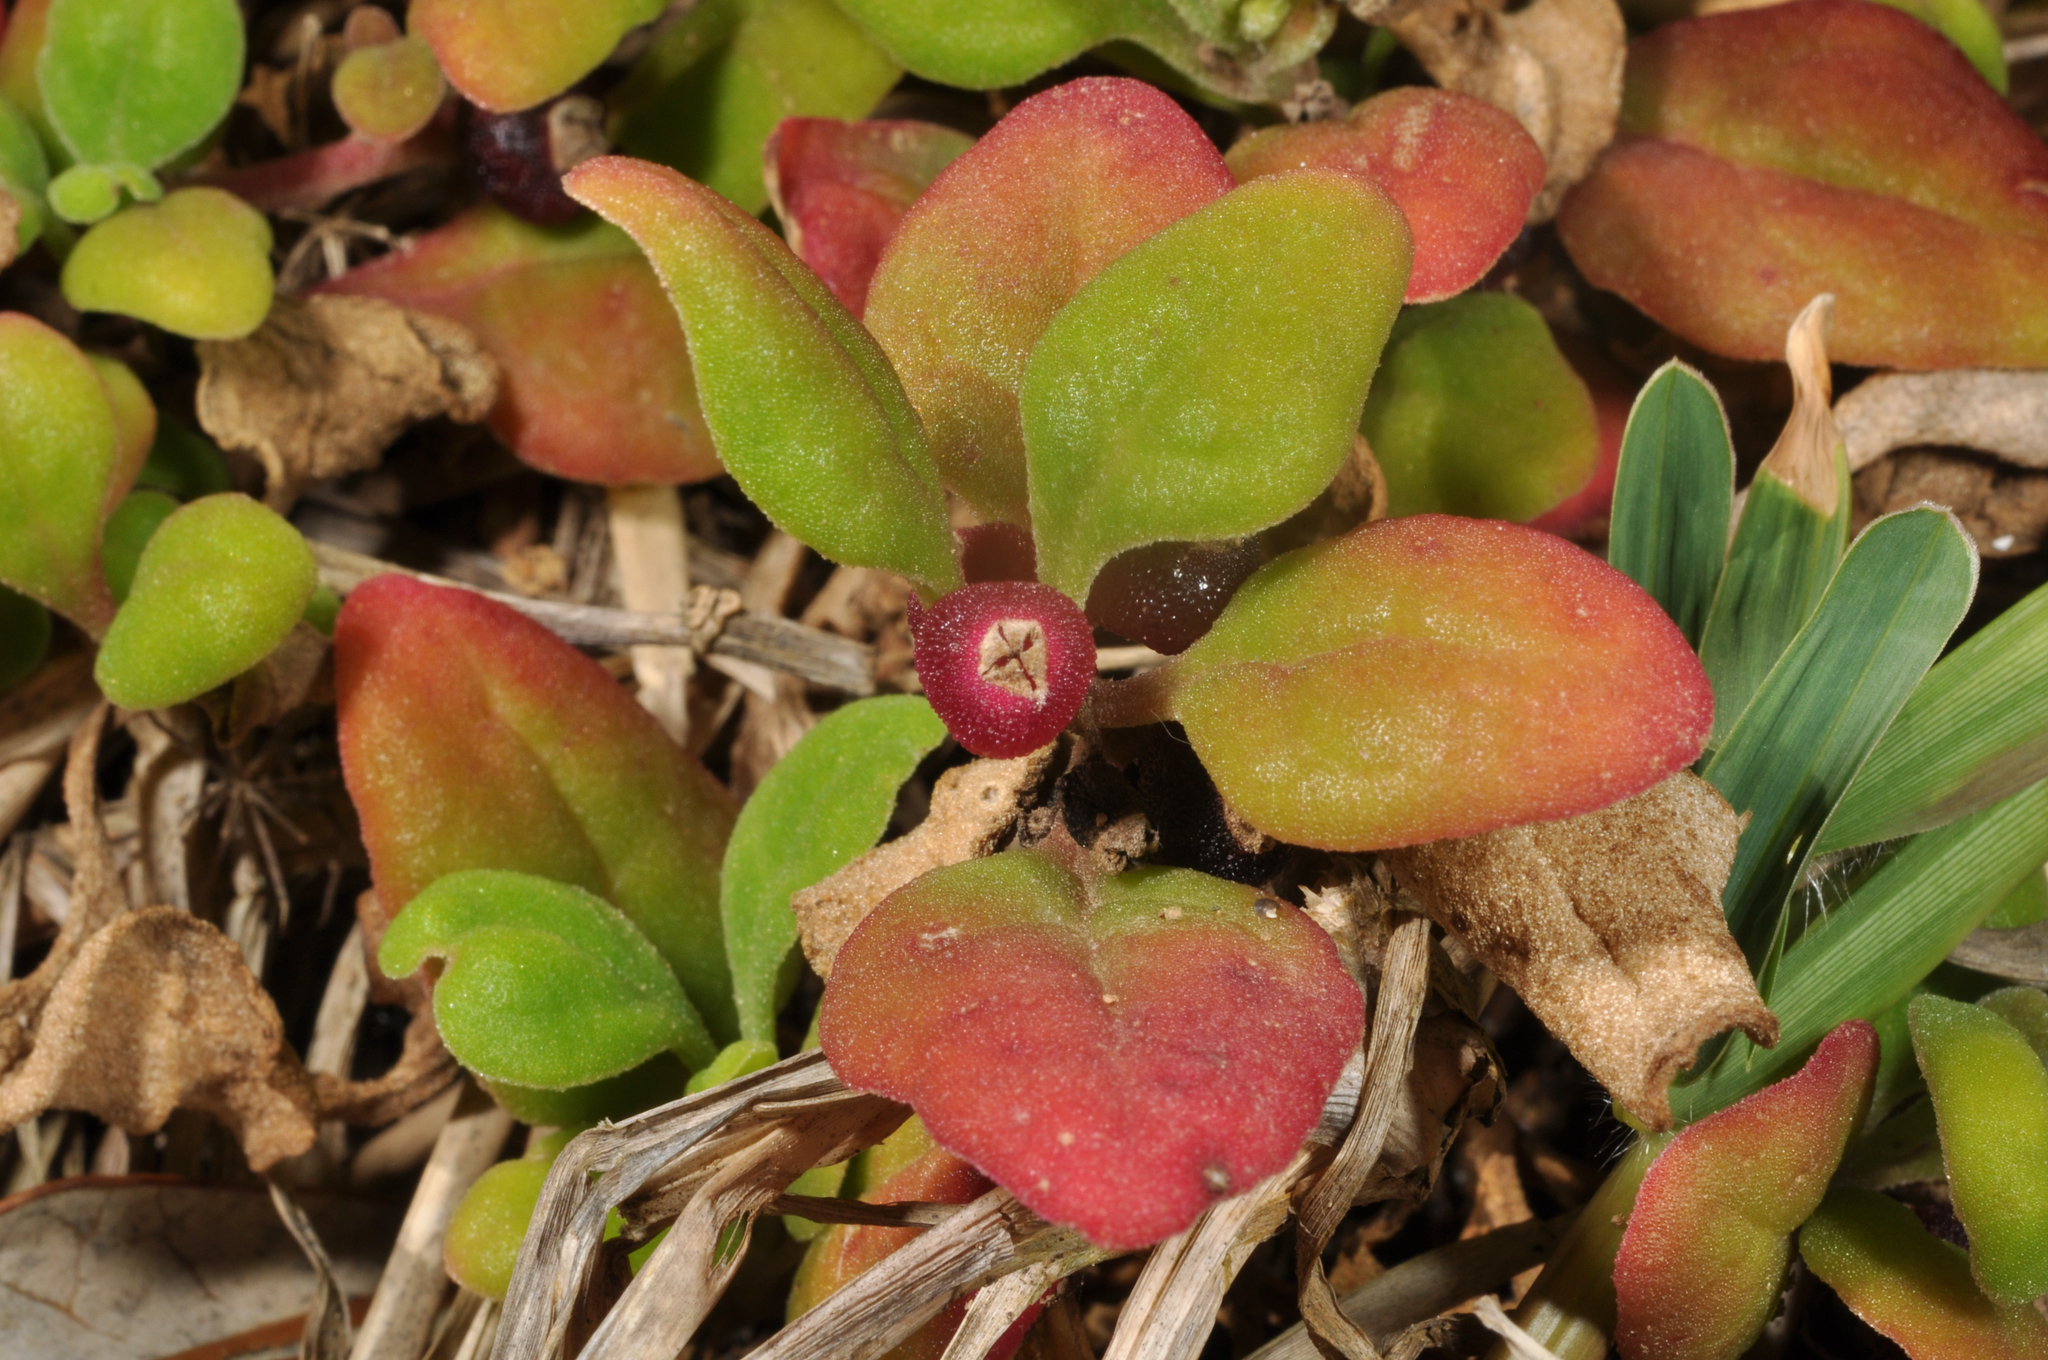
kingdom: Plantae
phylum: Tracheophyta
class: Magnoliopsida
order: Caryophyllales
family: Aizoaceae
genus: Tetragonia
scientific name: Tetragonia implexicoma
